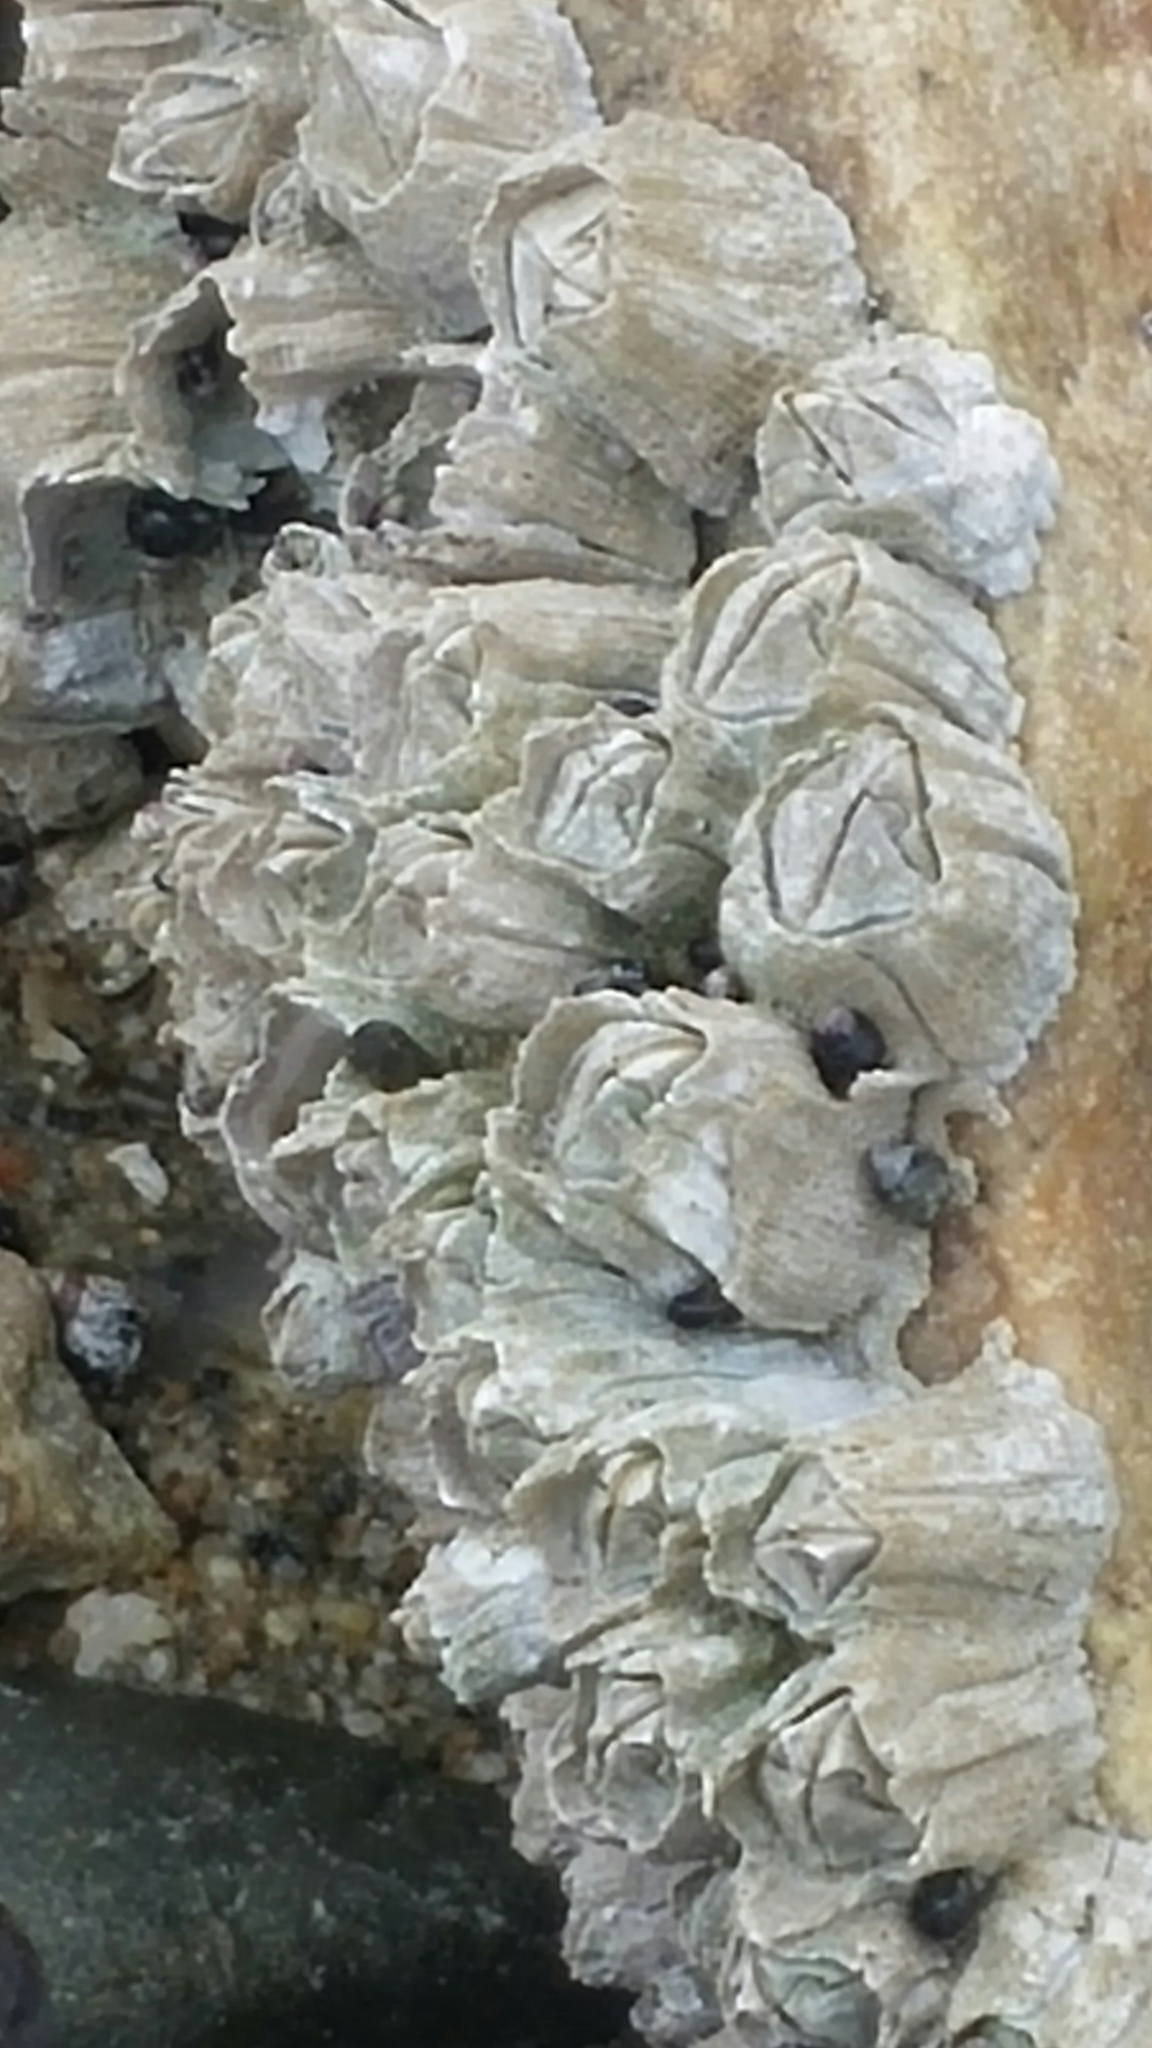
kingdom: Animalia
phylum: Arthropoda
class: Maxillopoda
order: Sessilia
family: Balanidae
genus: Balanus
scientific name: Balanus glandula
